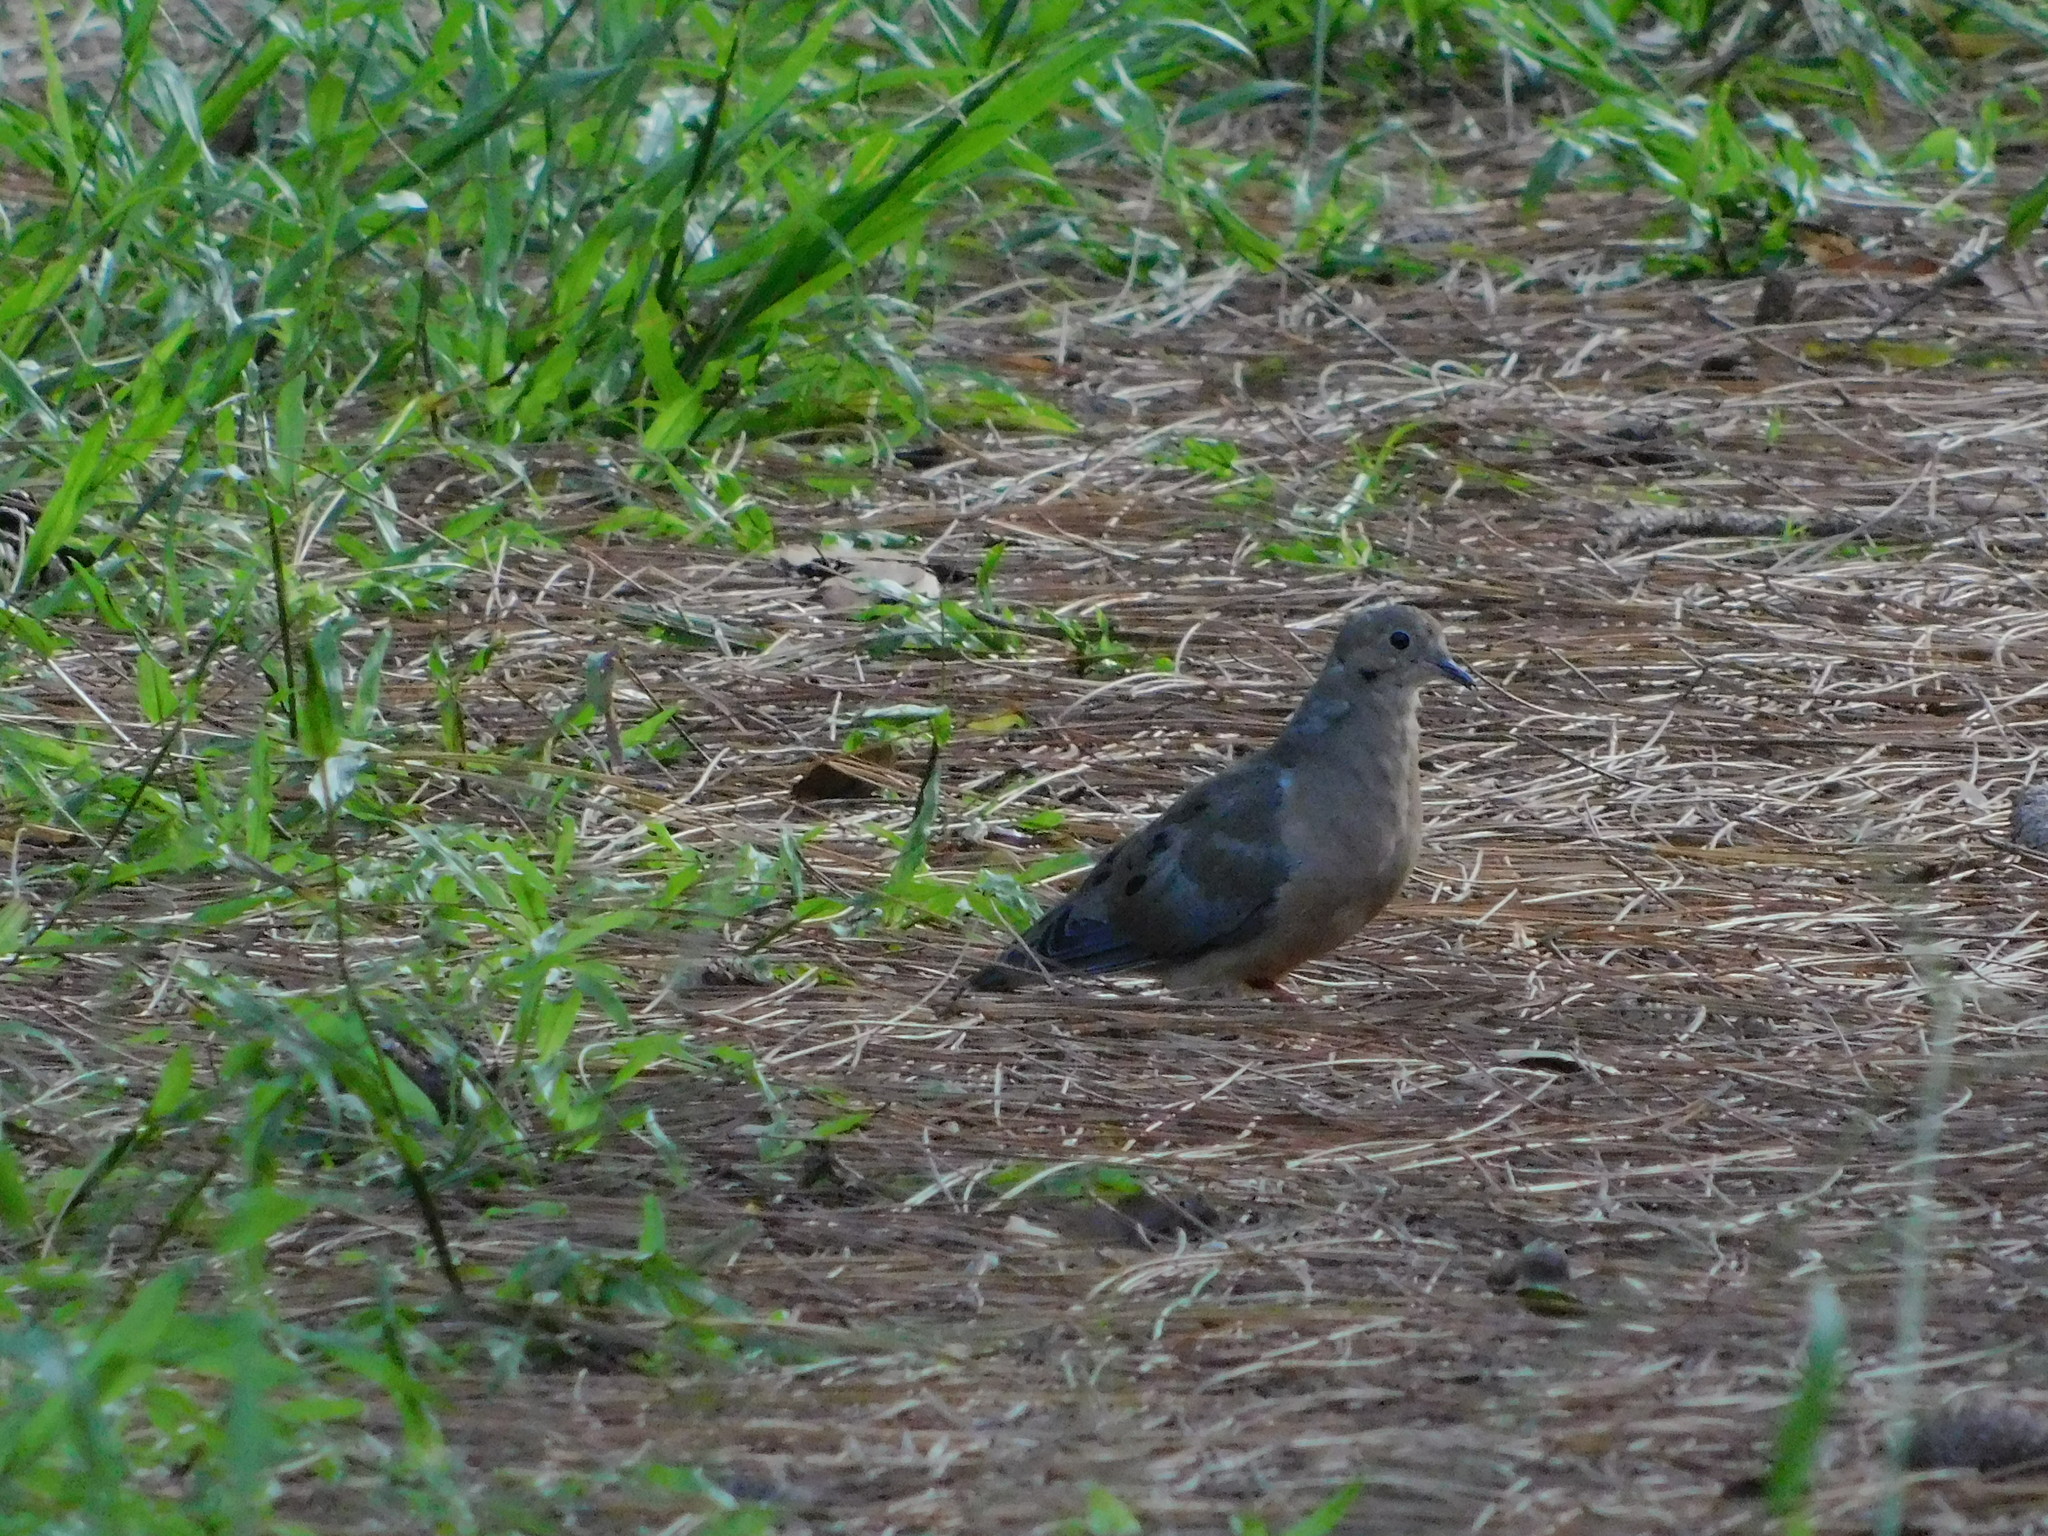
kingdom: Animalia
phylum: Chordata
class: Aves
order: Columbiformes
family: Columbidae
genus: Zenaida
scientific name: Zenaida macroura
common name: Mourning dove
